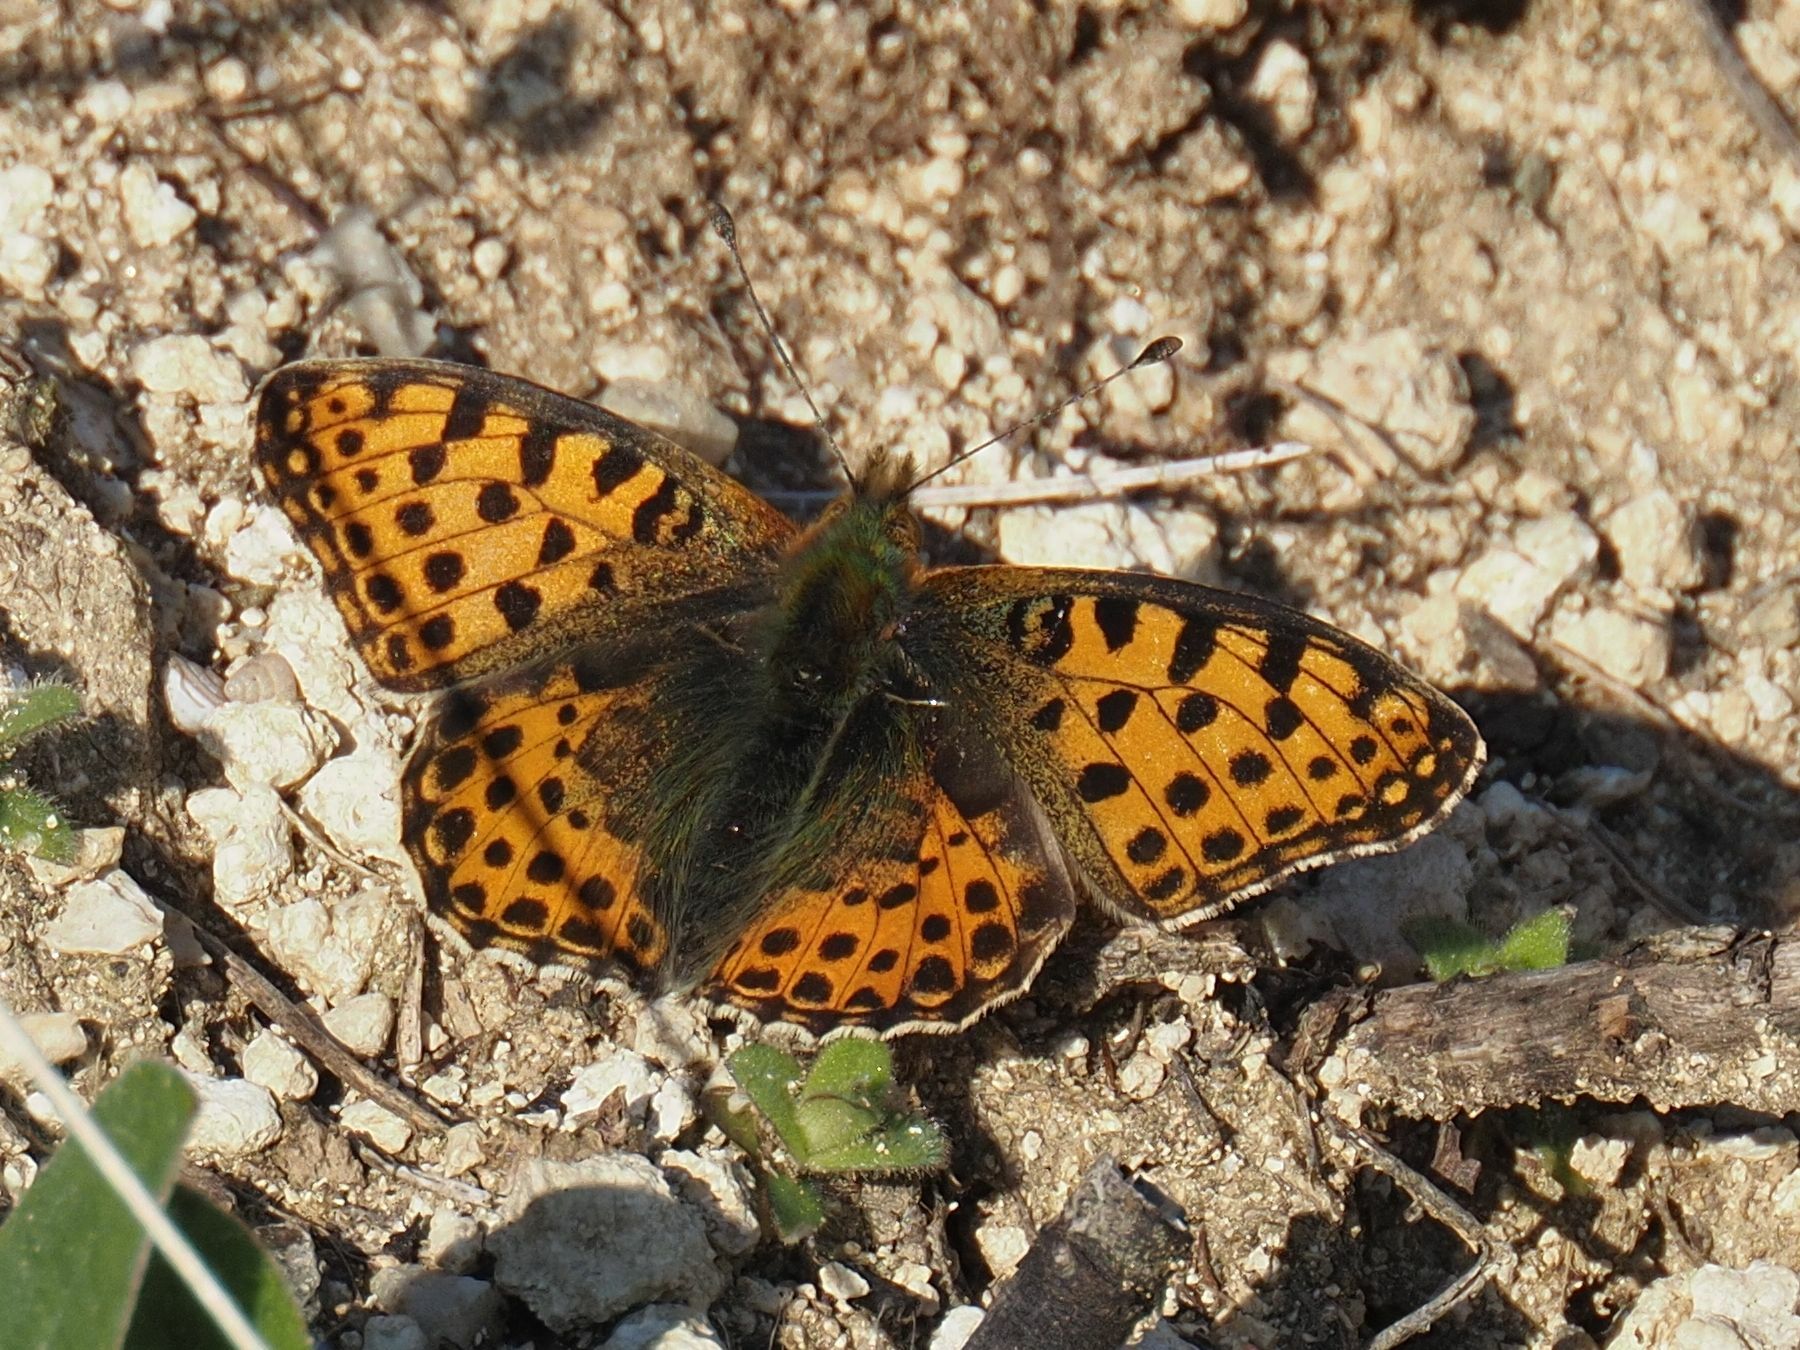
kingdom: Animalia
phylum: Arthropoda
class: Insecta
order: Lepidoptera
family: Nymphalidae
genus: Issoria
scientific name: Issoria lathonia
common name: Queen of spain fritillary
